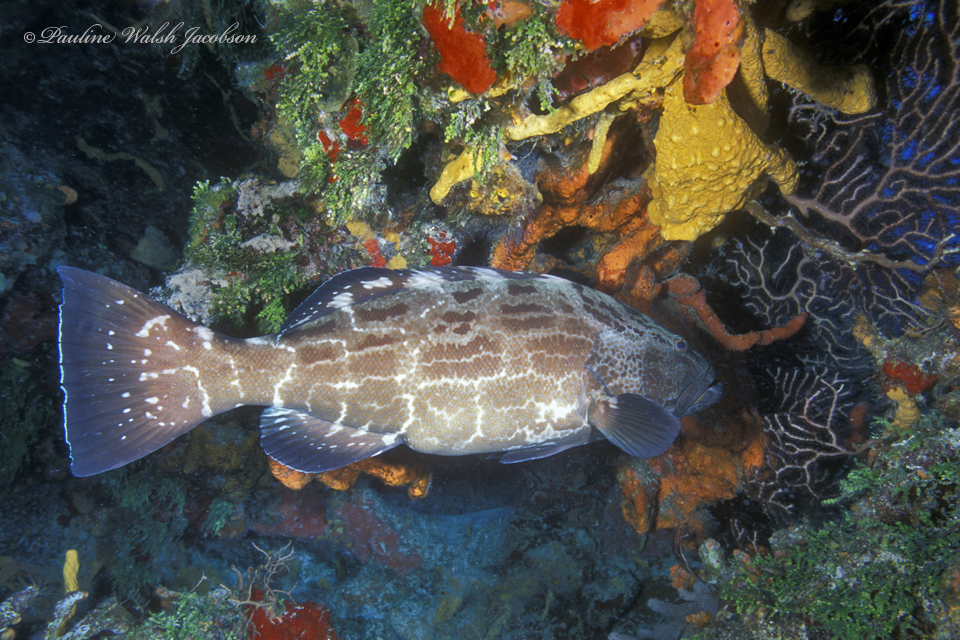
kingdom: Animalia
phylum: Chordata
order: Perciformes
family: Serranidae
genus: Mycteroperca
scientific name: Mycteroperca bonaci
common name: Black grouper
